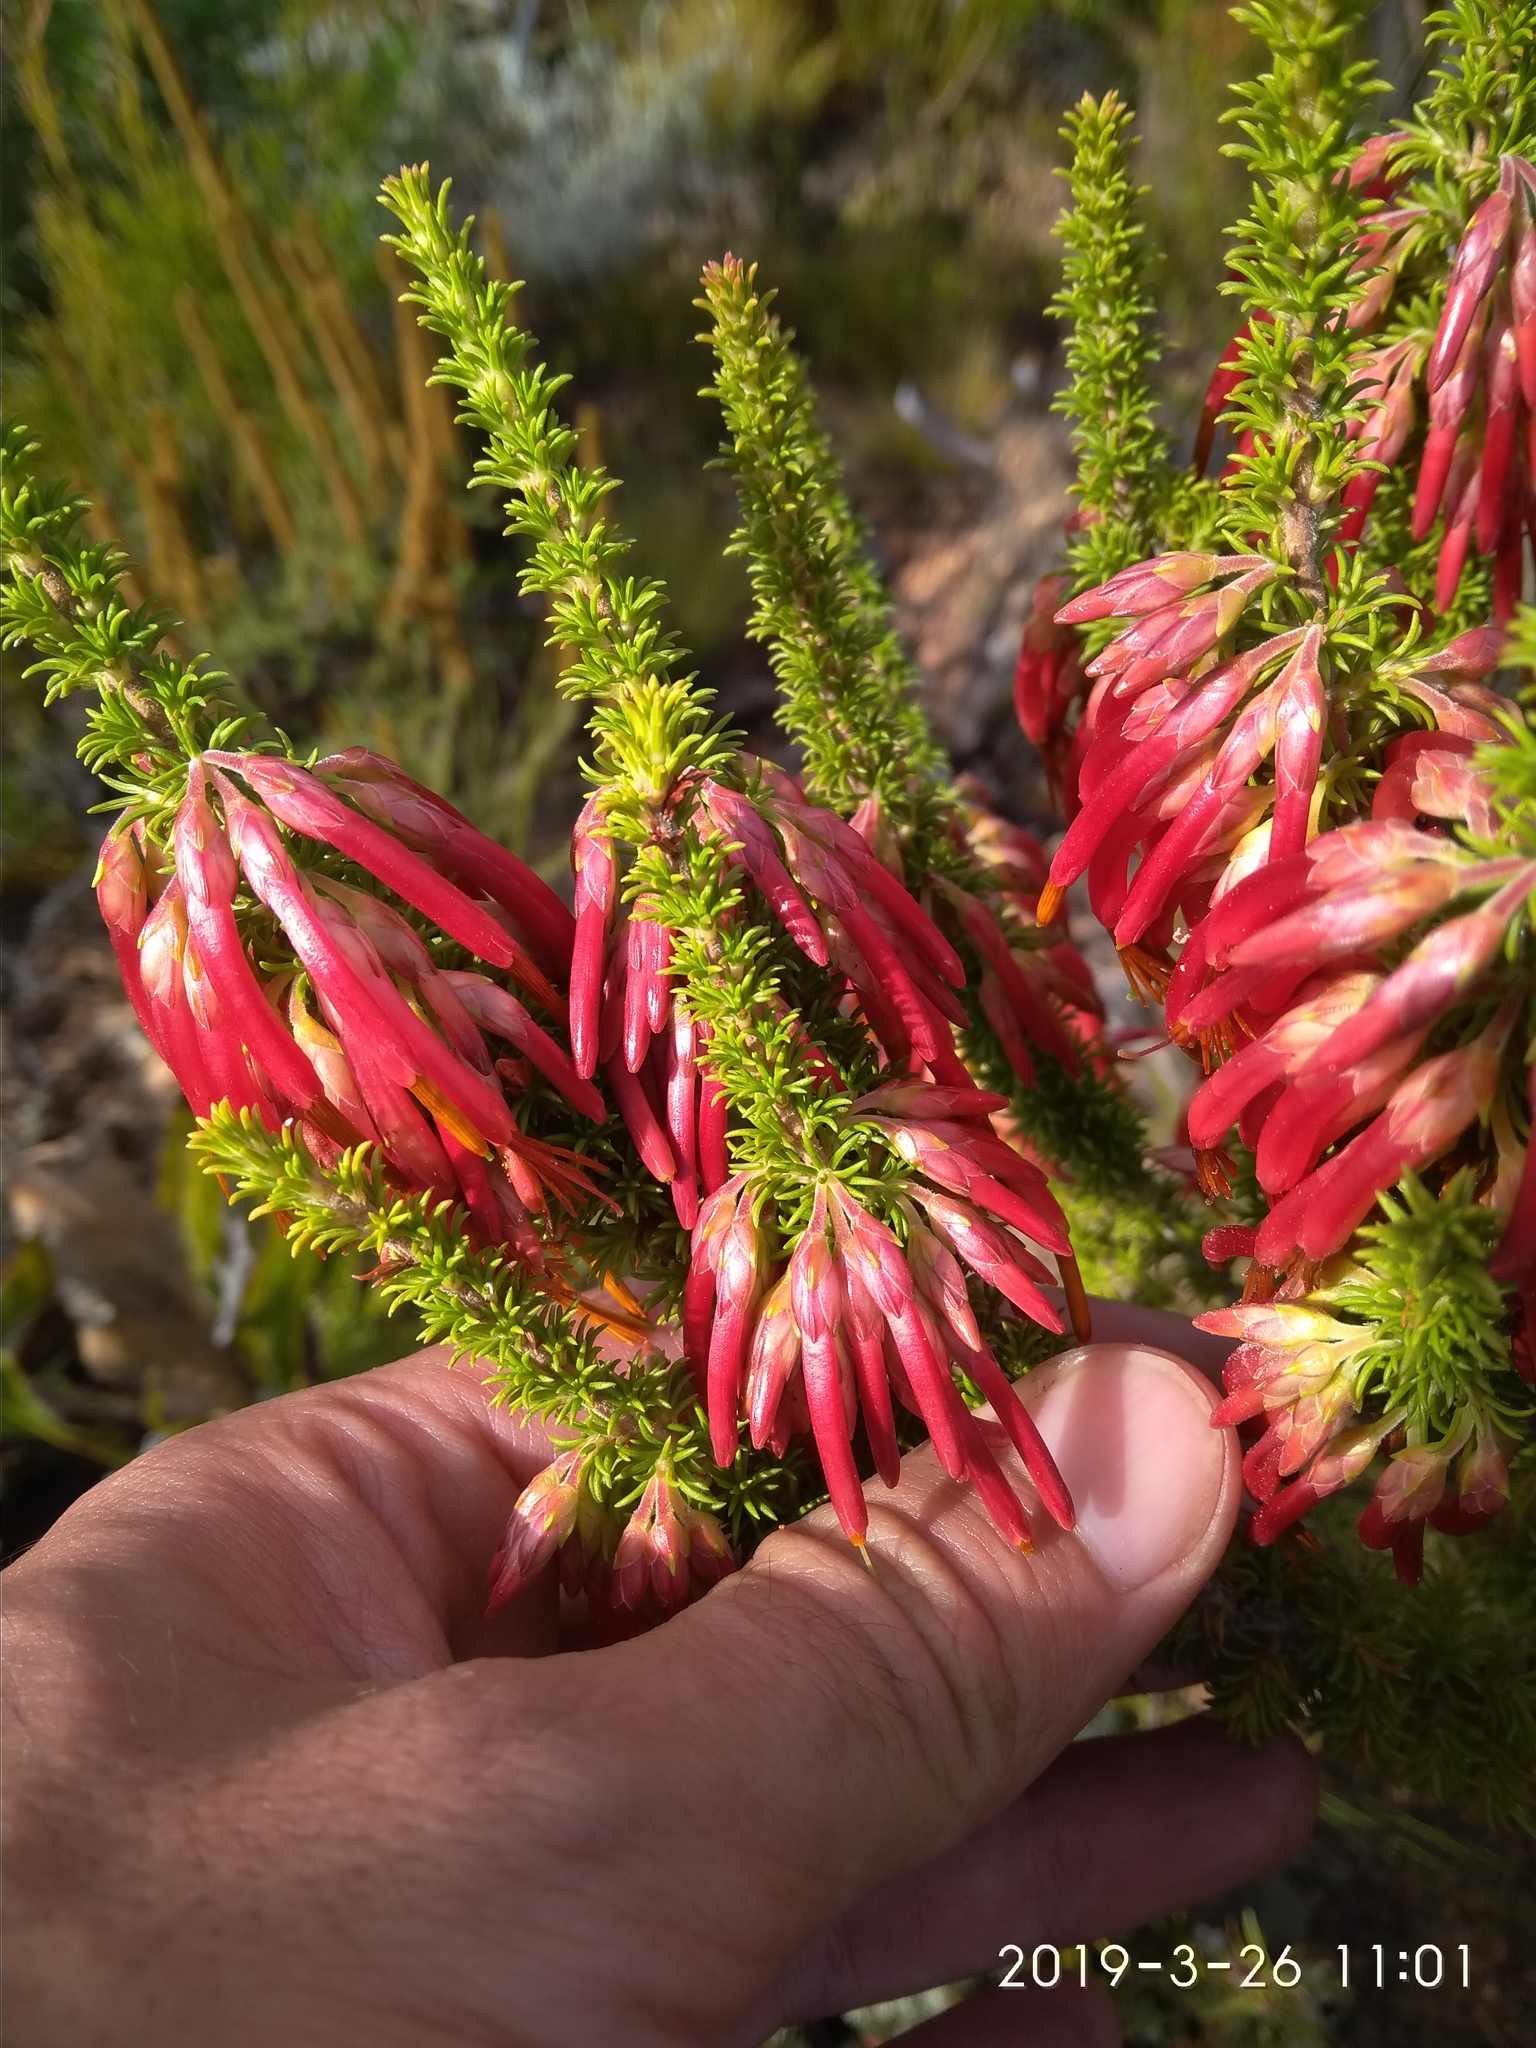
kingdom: Plantae
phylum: Tracheophyta
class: Magnoliopsida
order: Ericales
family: Ericaceae
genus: Erica
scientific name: Erica coccinea
